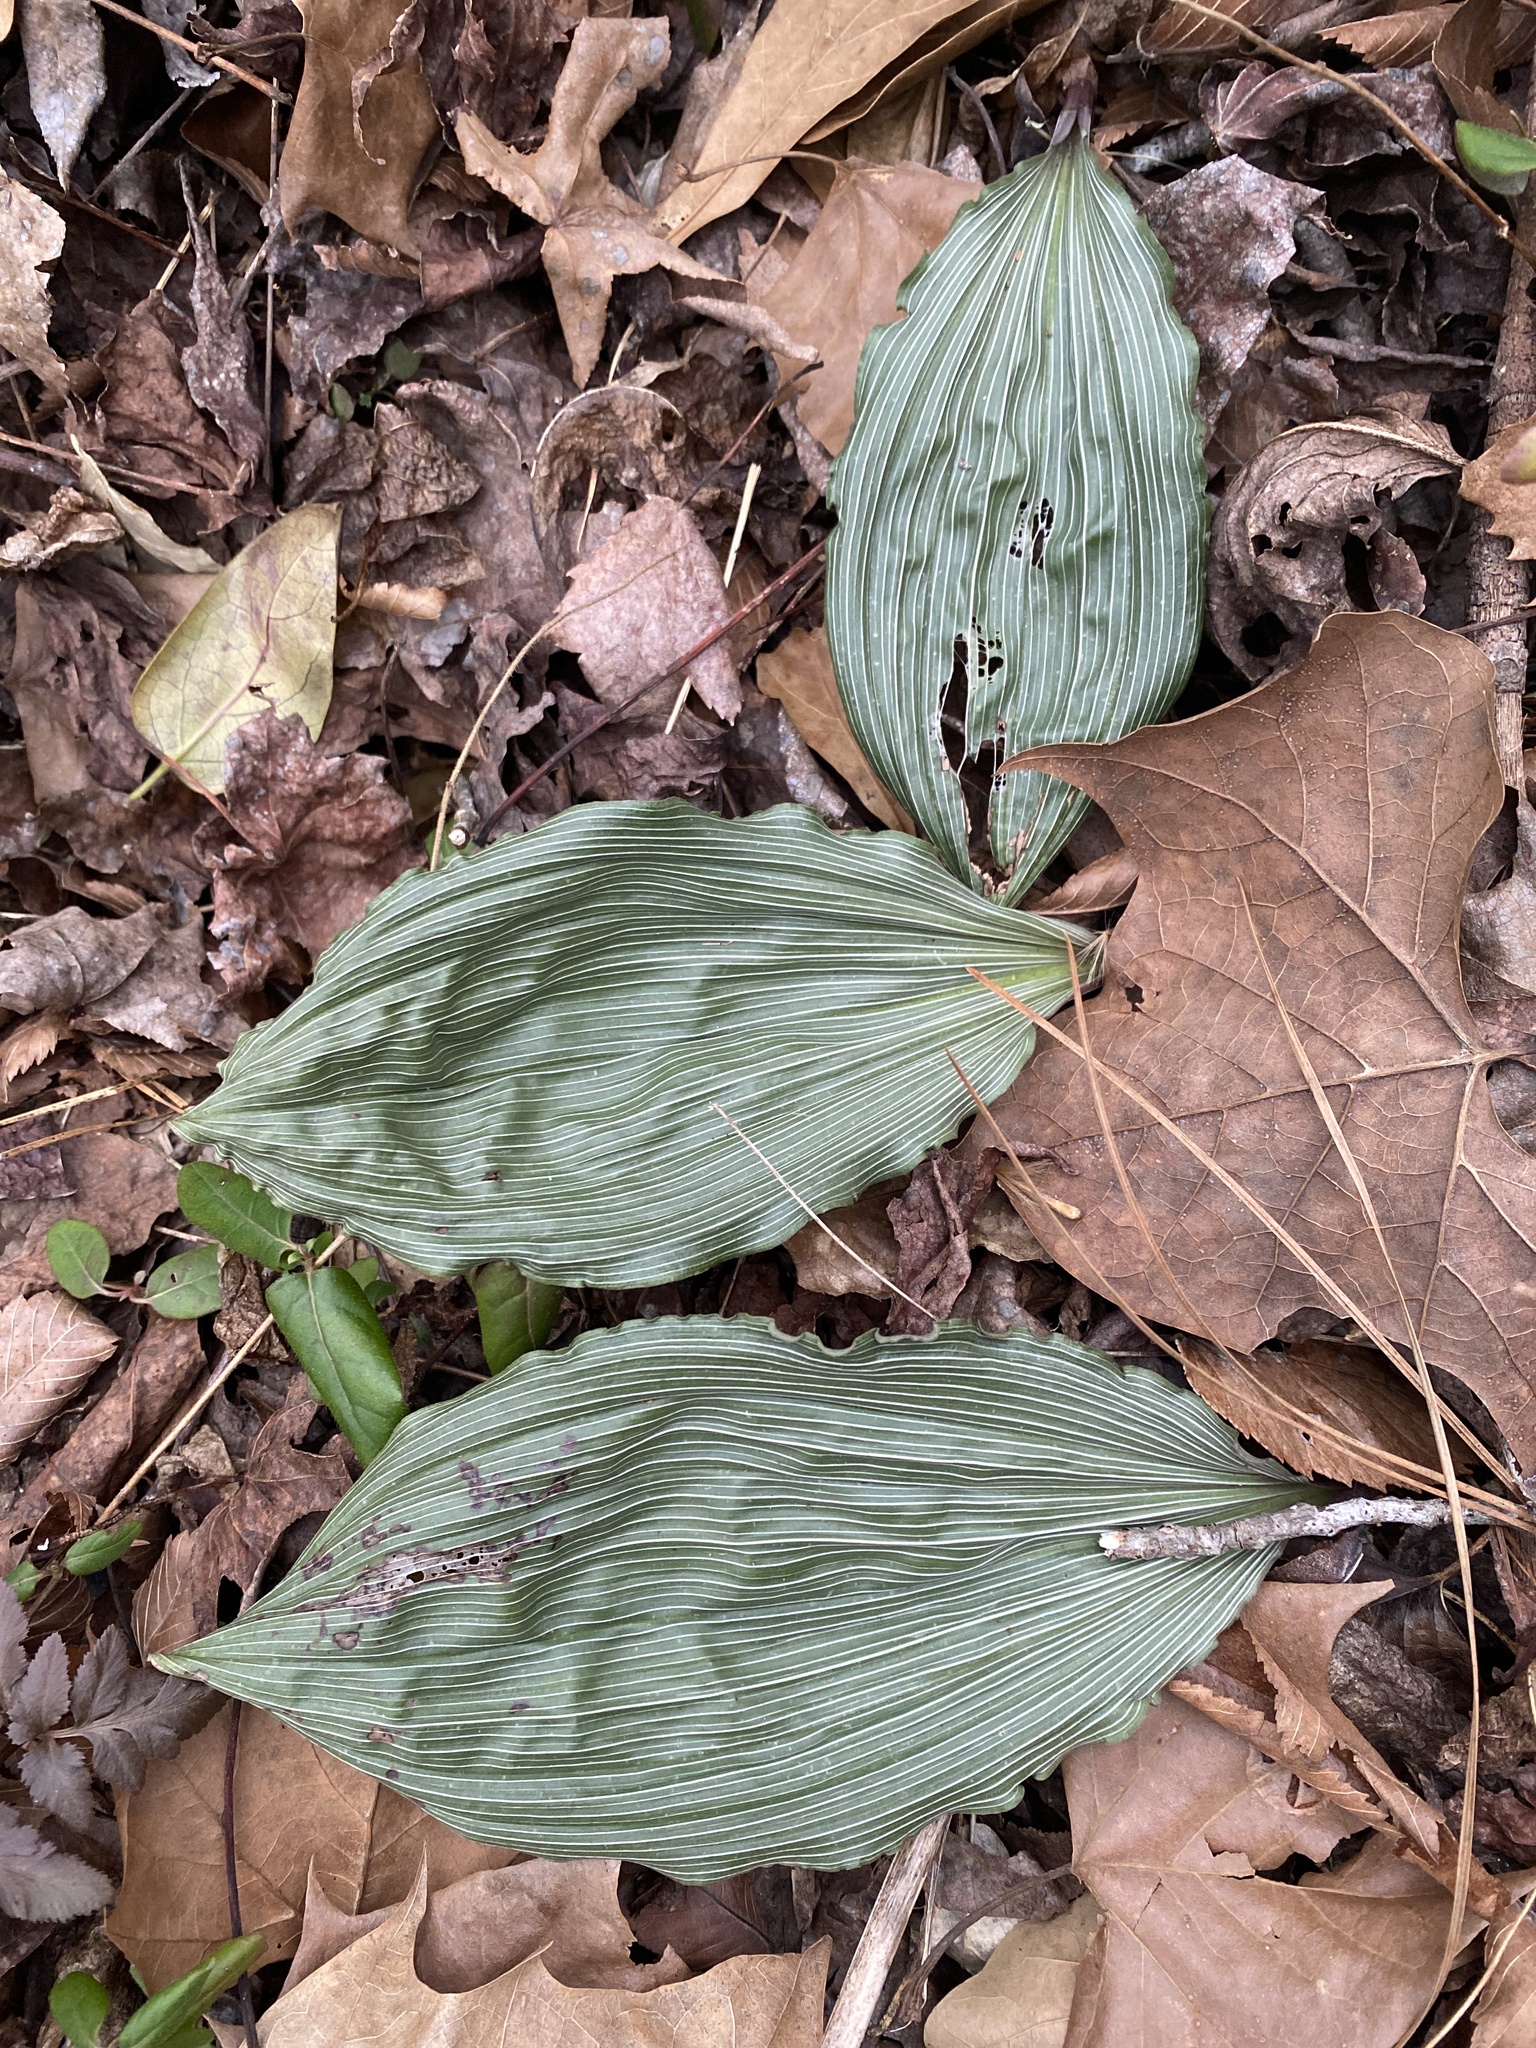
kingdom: Plantae
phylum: Tracheophyta
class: Liliopsida
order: Asparagales
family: Orchidaceae
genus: Aplectrum
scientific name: Aplectrum hyemale
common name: Adam-and-eve
